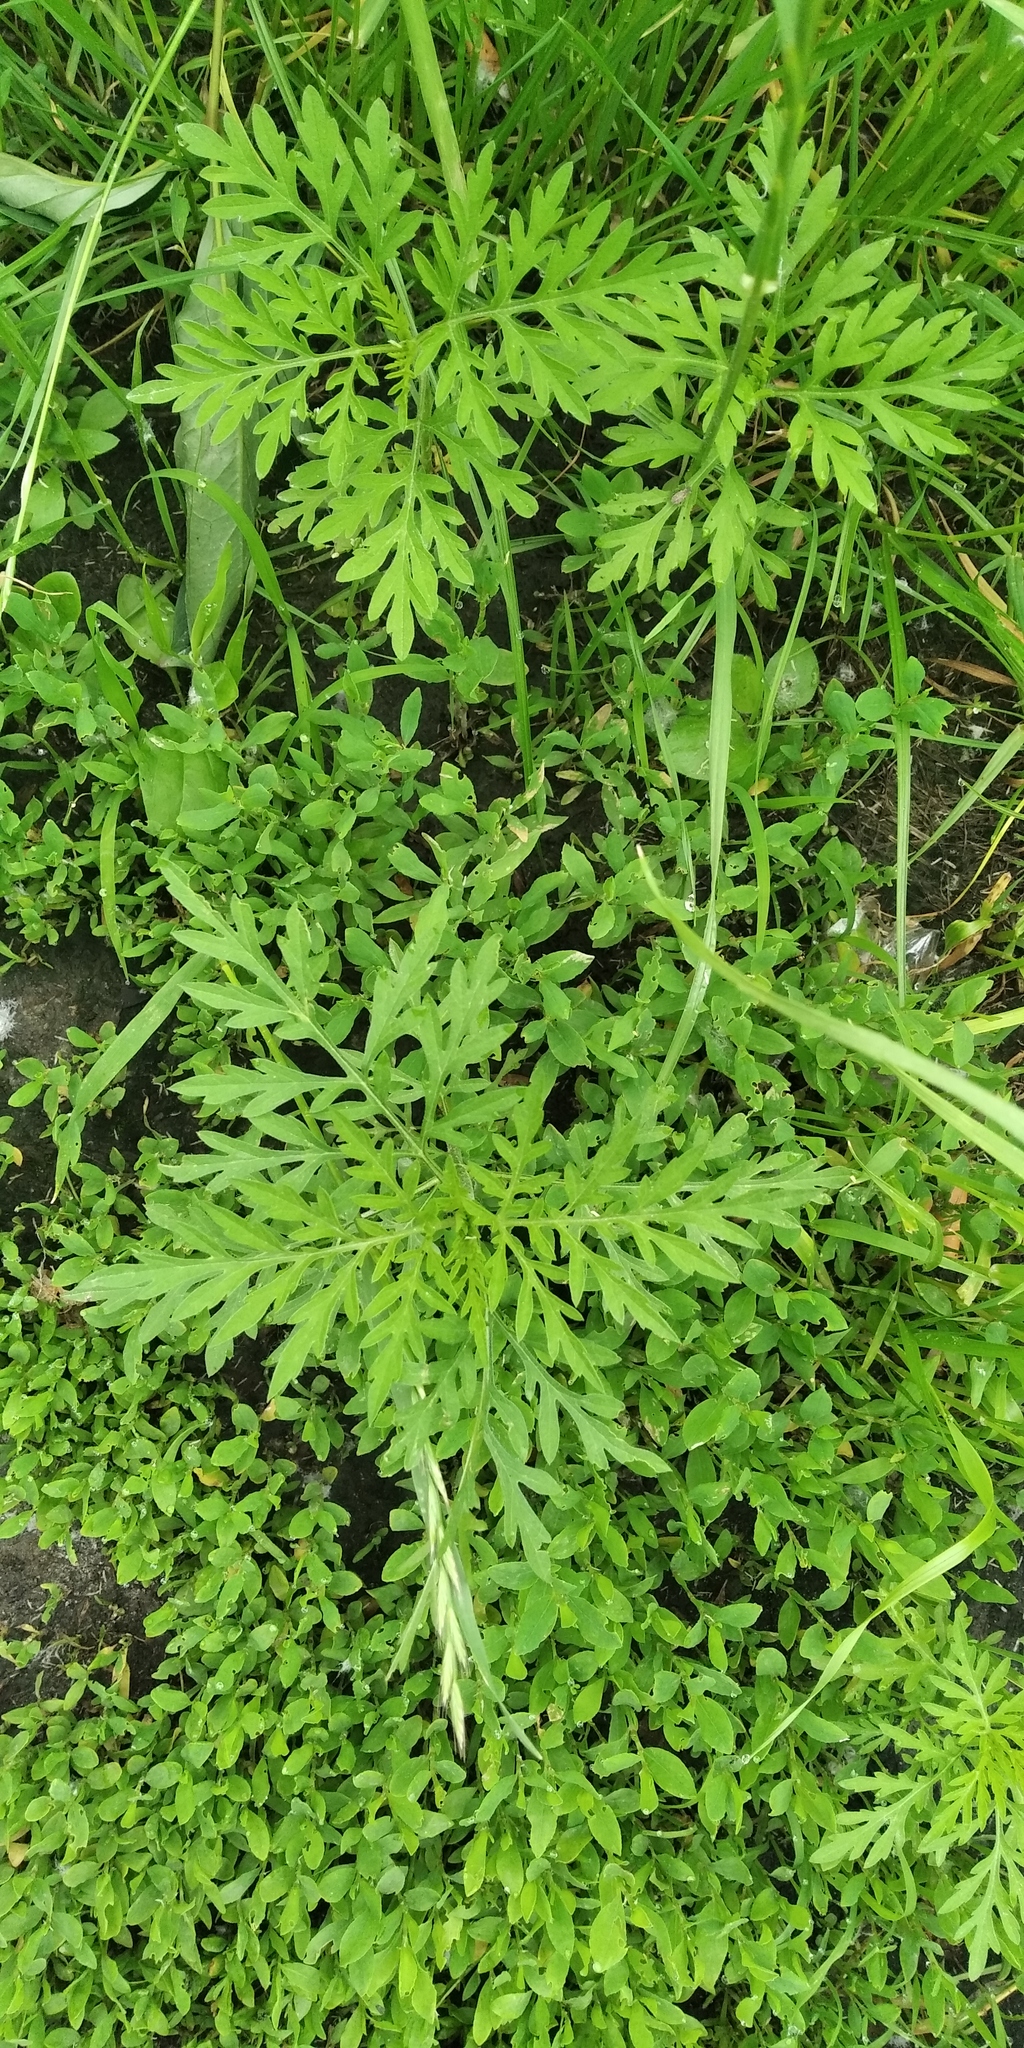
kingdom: Plantae
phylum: Tracheophyta
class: Magnoliopsida
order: Asterales
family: Asteraceae
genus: Ambrosia
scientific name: Ambrosia artemisiifolia
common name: Annual ragweed
